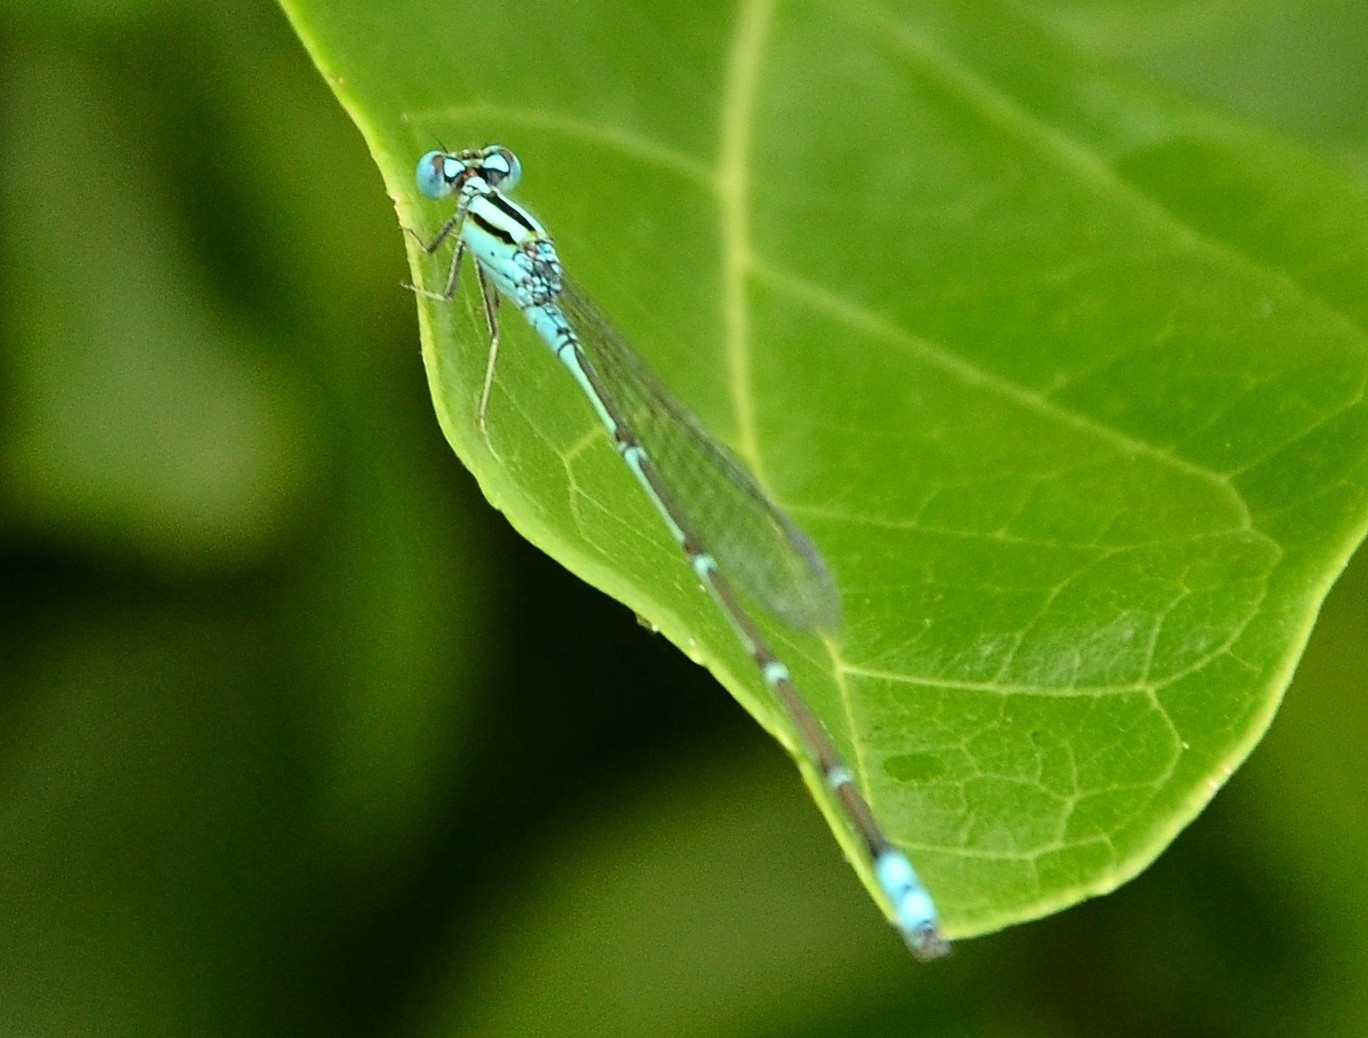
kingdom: Animalia
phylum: Arthropoda
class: Insecta
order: Odonata
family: Coenagrionidae
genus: Pseudagrion
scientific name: Pseudagrion microcephalum
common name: Blue riverdamsel
